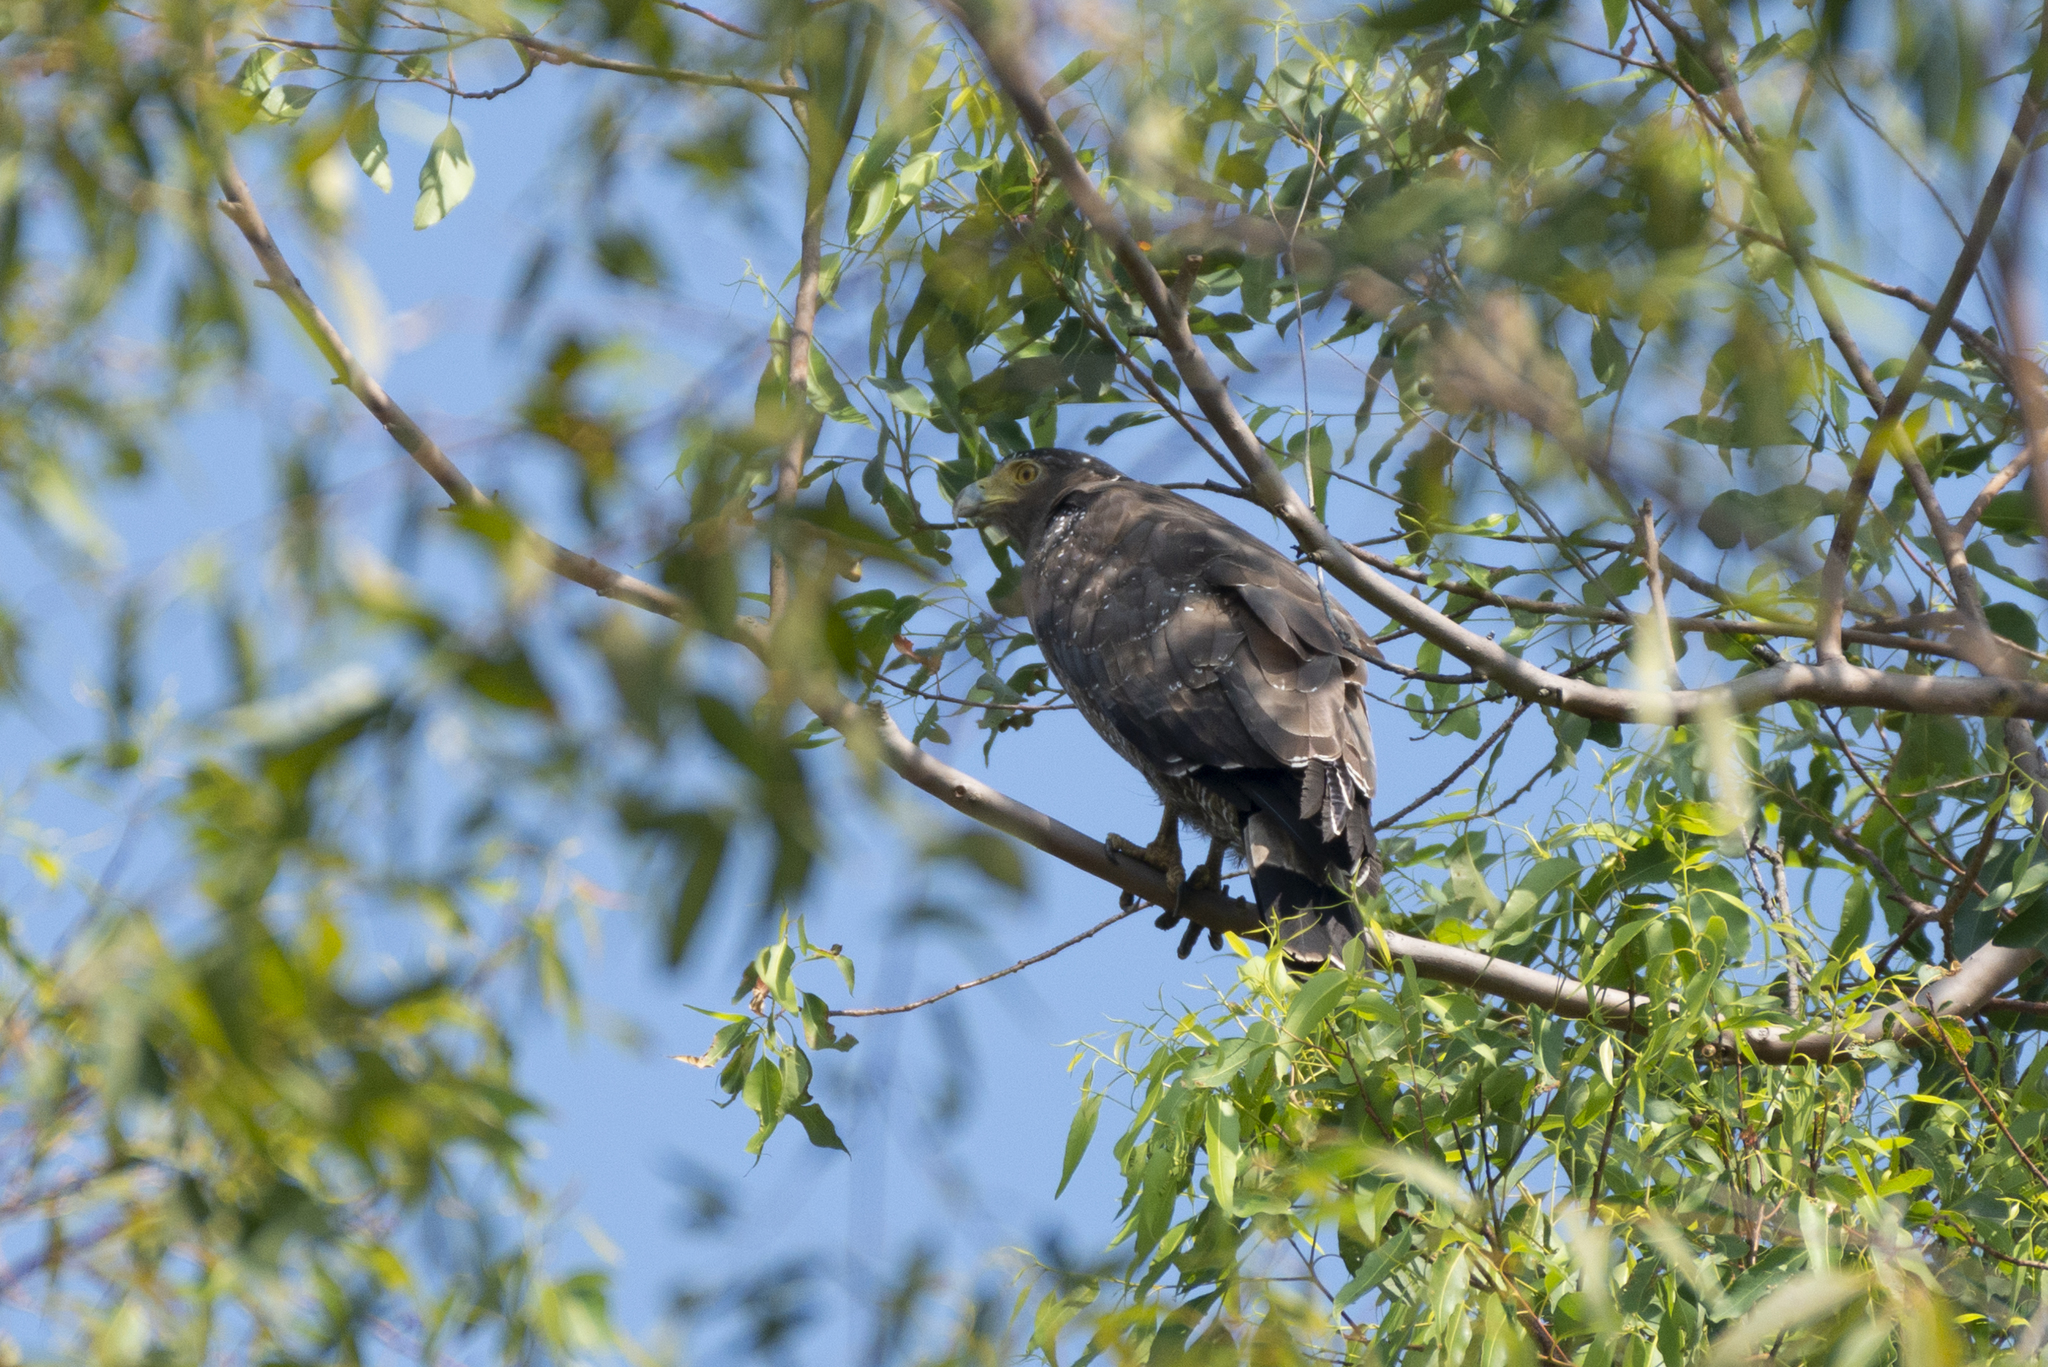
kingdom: Animalia
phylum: Chordata
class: Aves
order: Accipitriformes
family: Accipitridae
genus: Spilornis
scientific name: Spilornis cheela
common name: Crested serpent eagle
